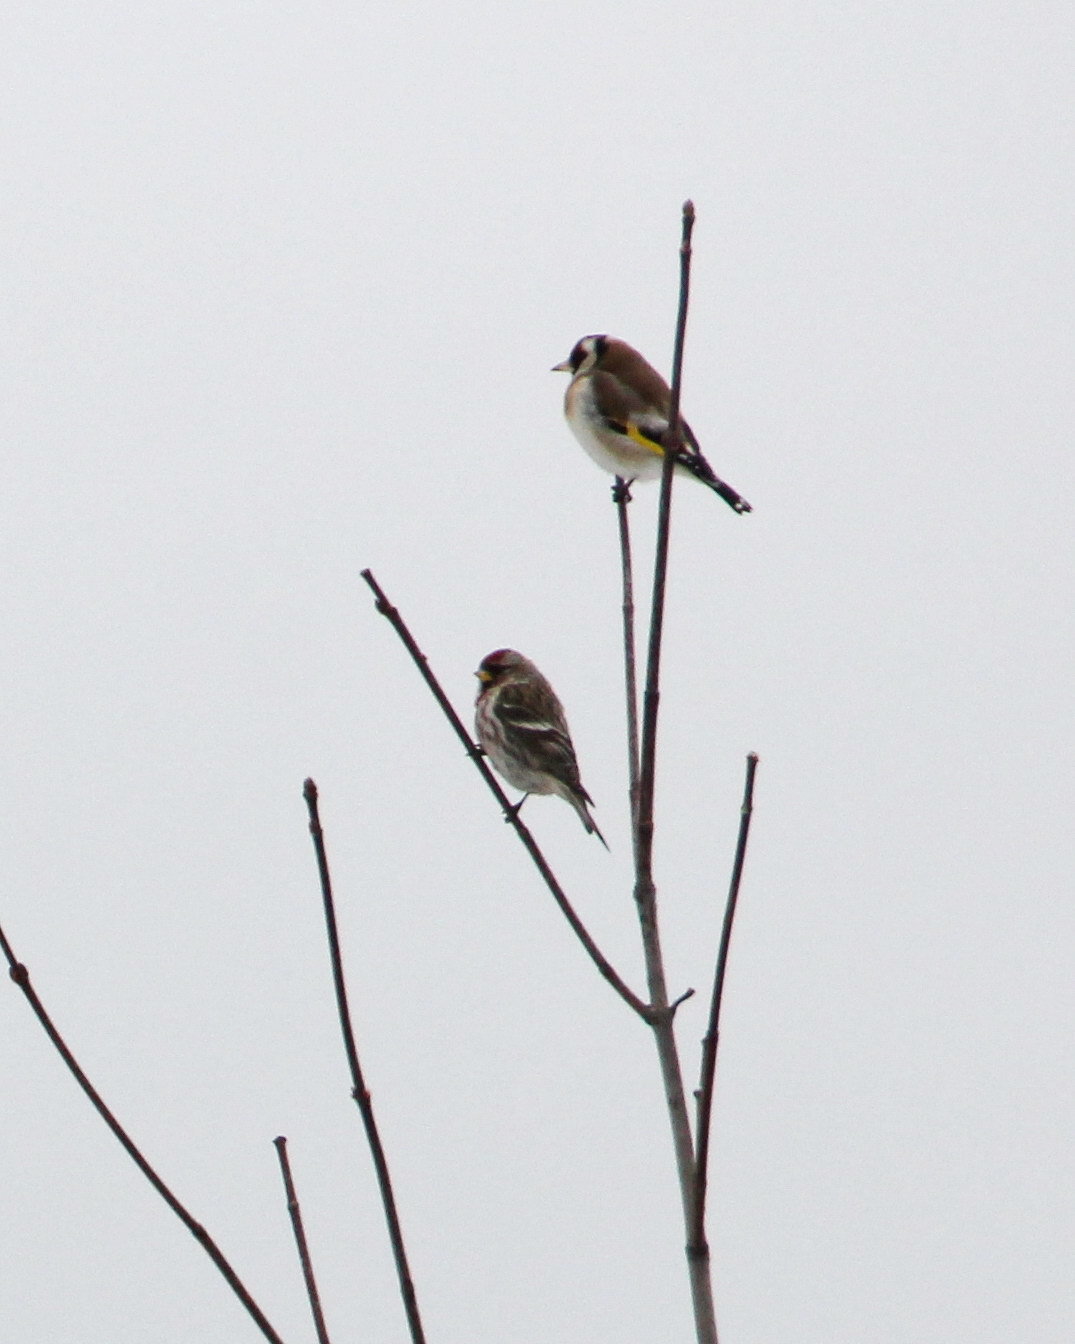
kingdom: Animalia
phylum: Chordata
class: Aves
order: Passeriformes
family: Fringillidae
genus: Acanthis
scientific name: Acanthis flammea
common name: Common redpoll
